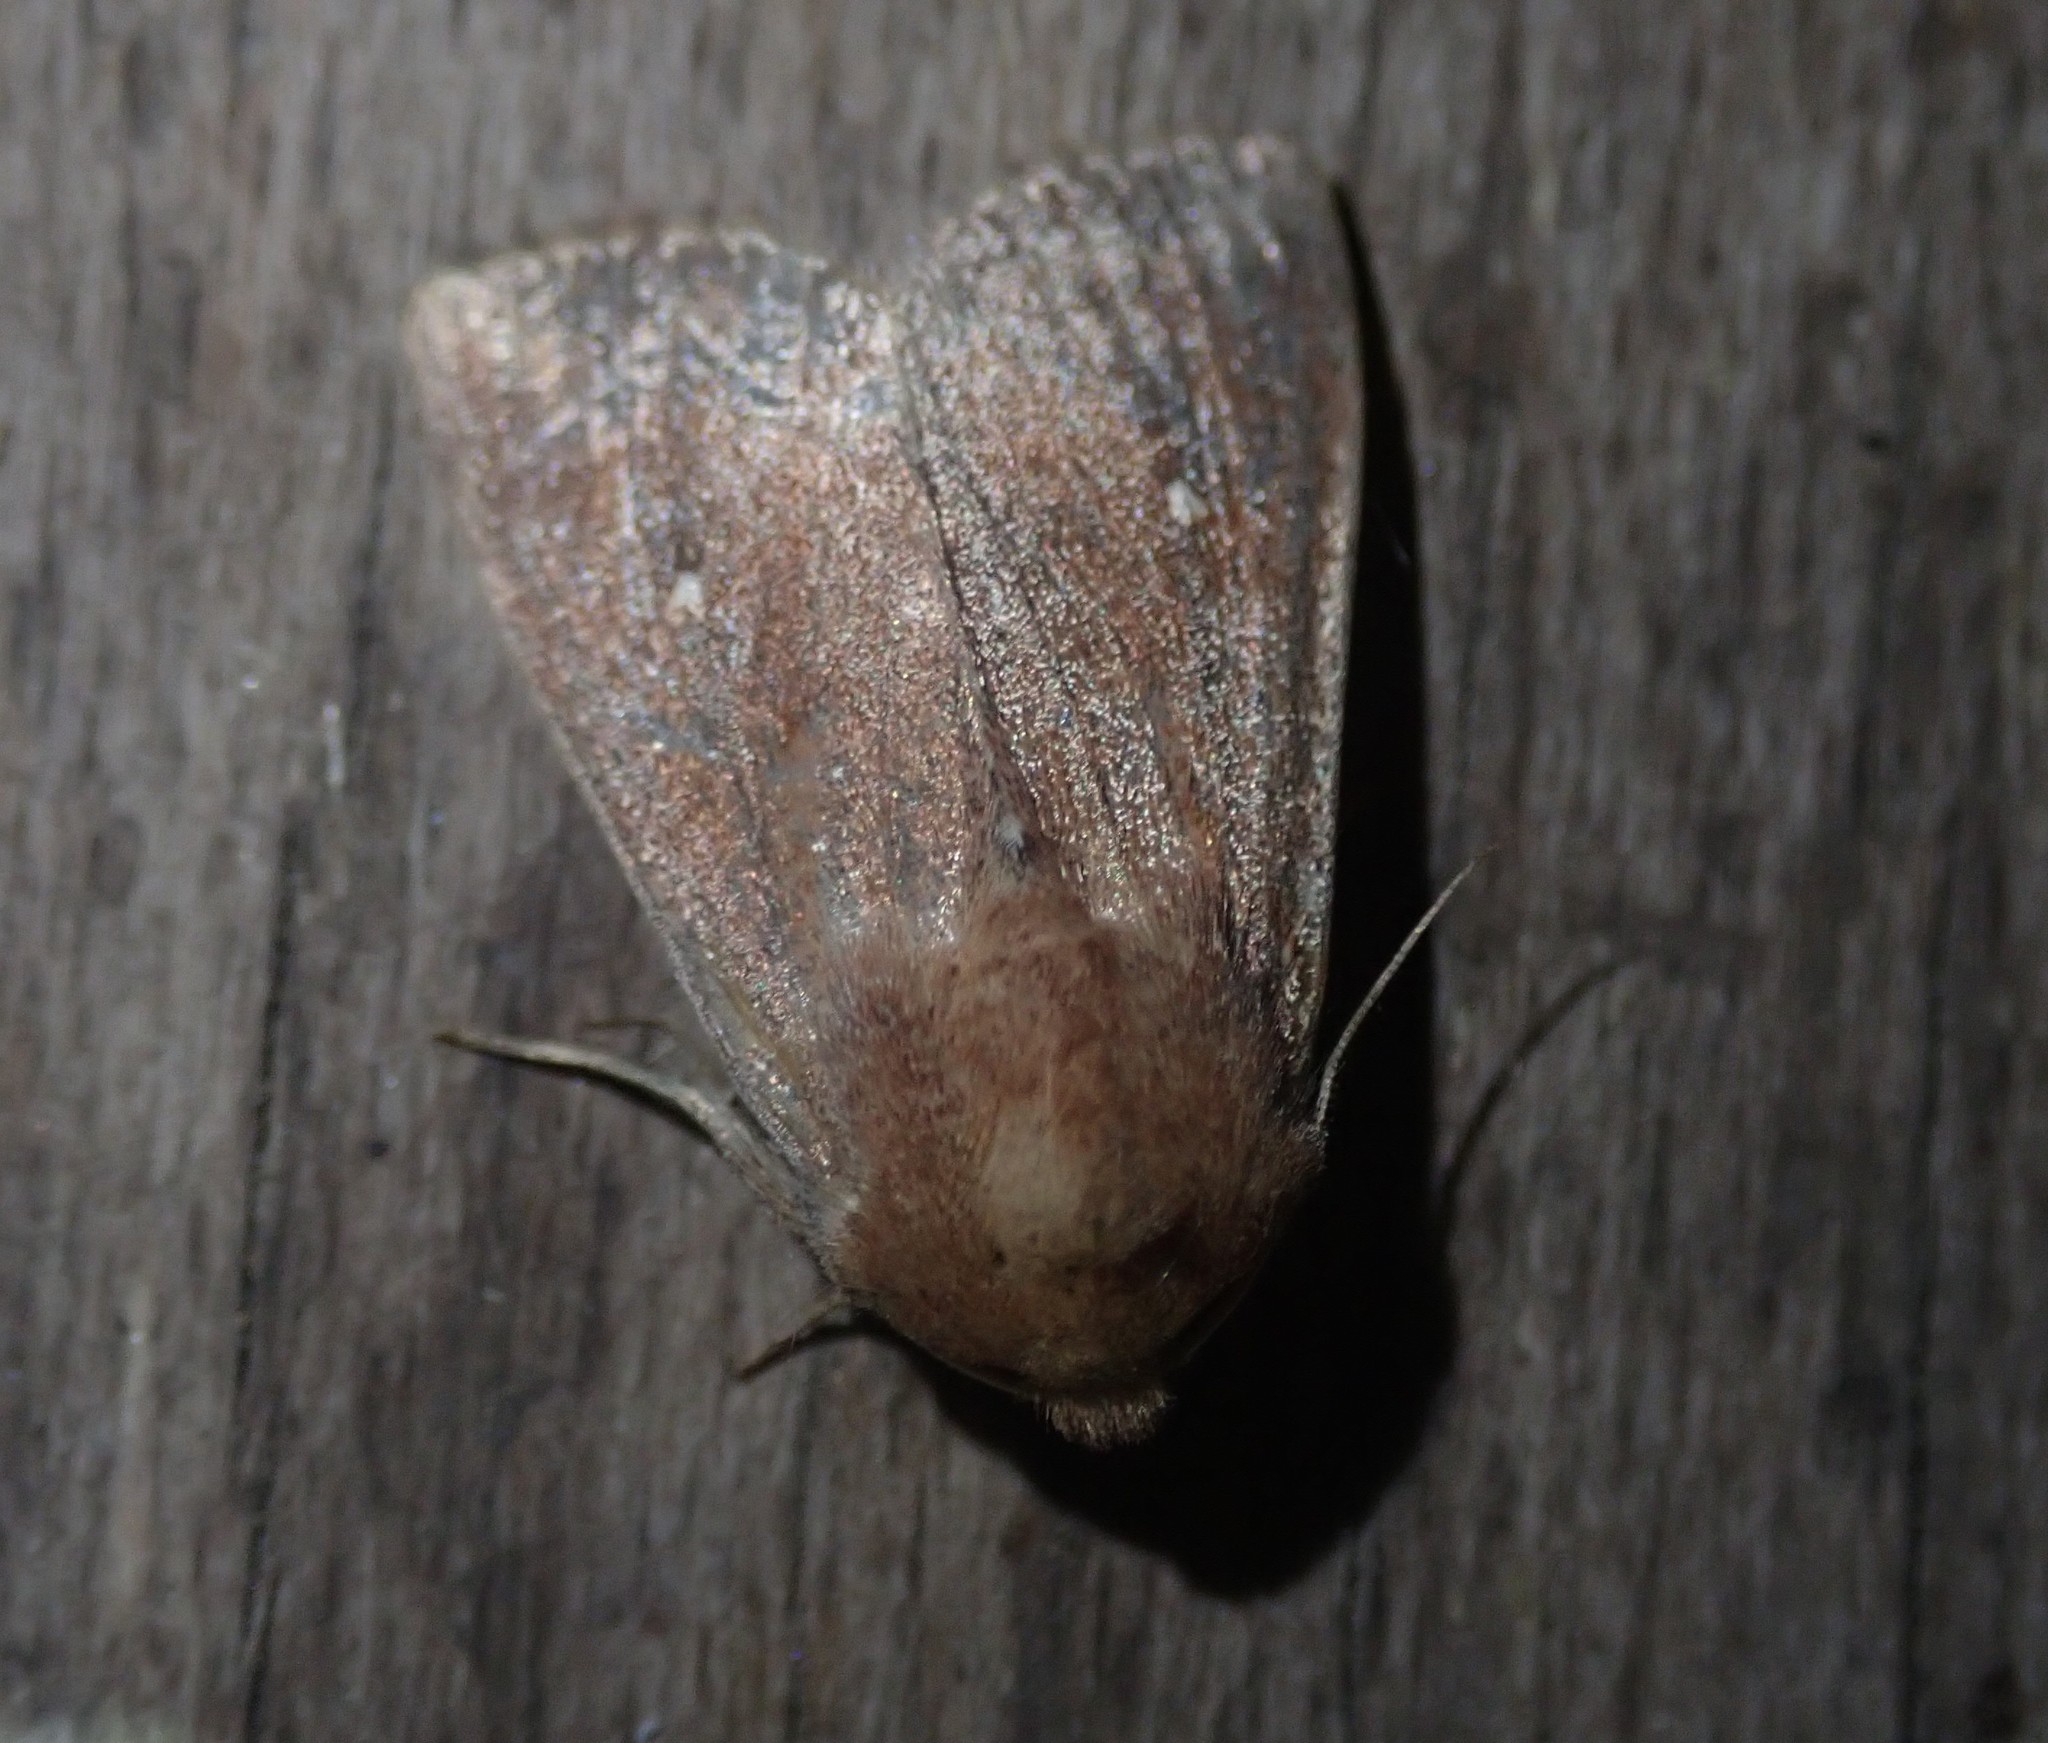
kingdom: Animalia
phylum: Arthropoda
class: Insecta
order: Lepidoptera
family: Noctuidae
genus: Mythimna
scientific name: Mythimna albipuncta
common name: White-point
